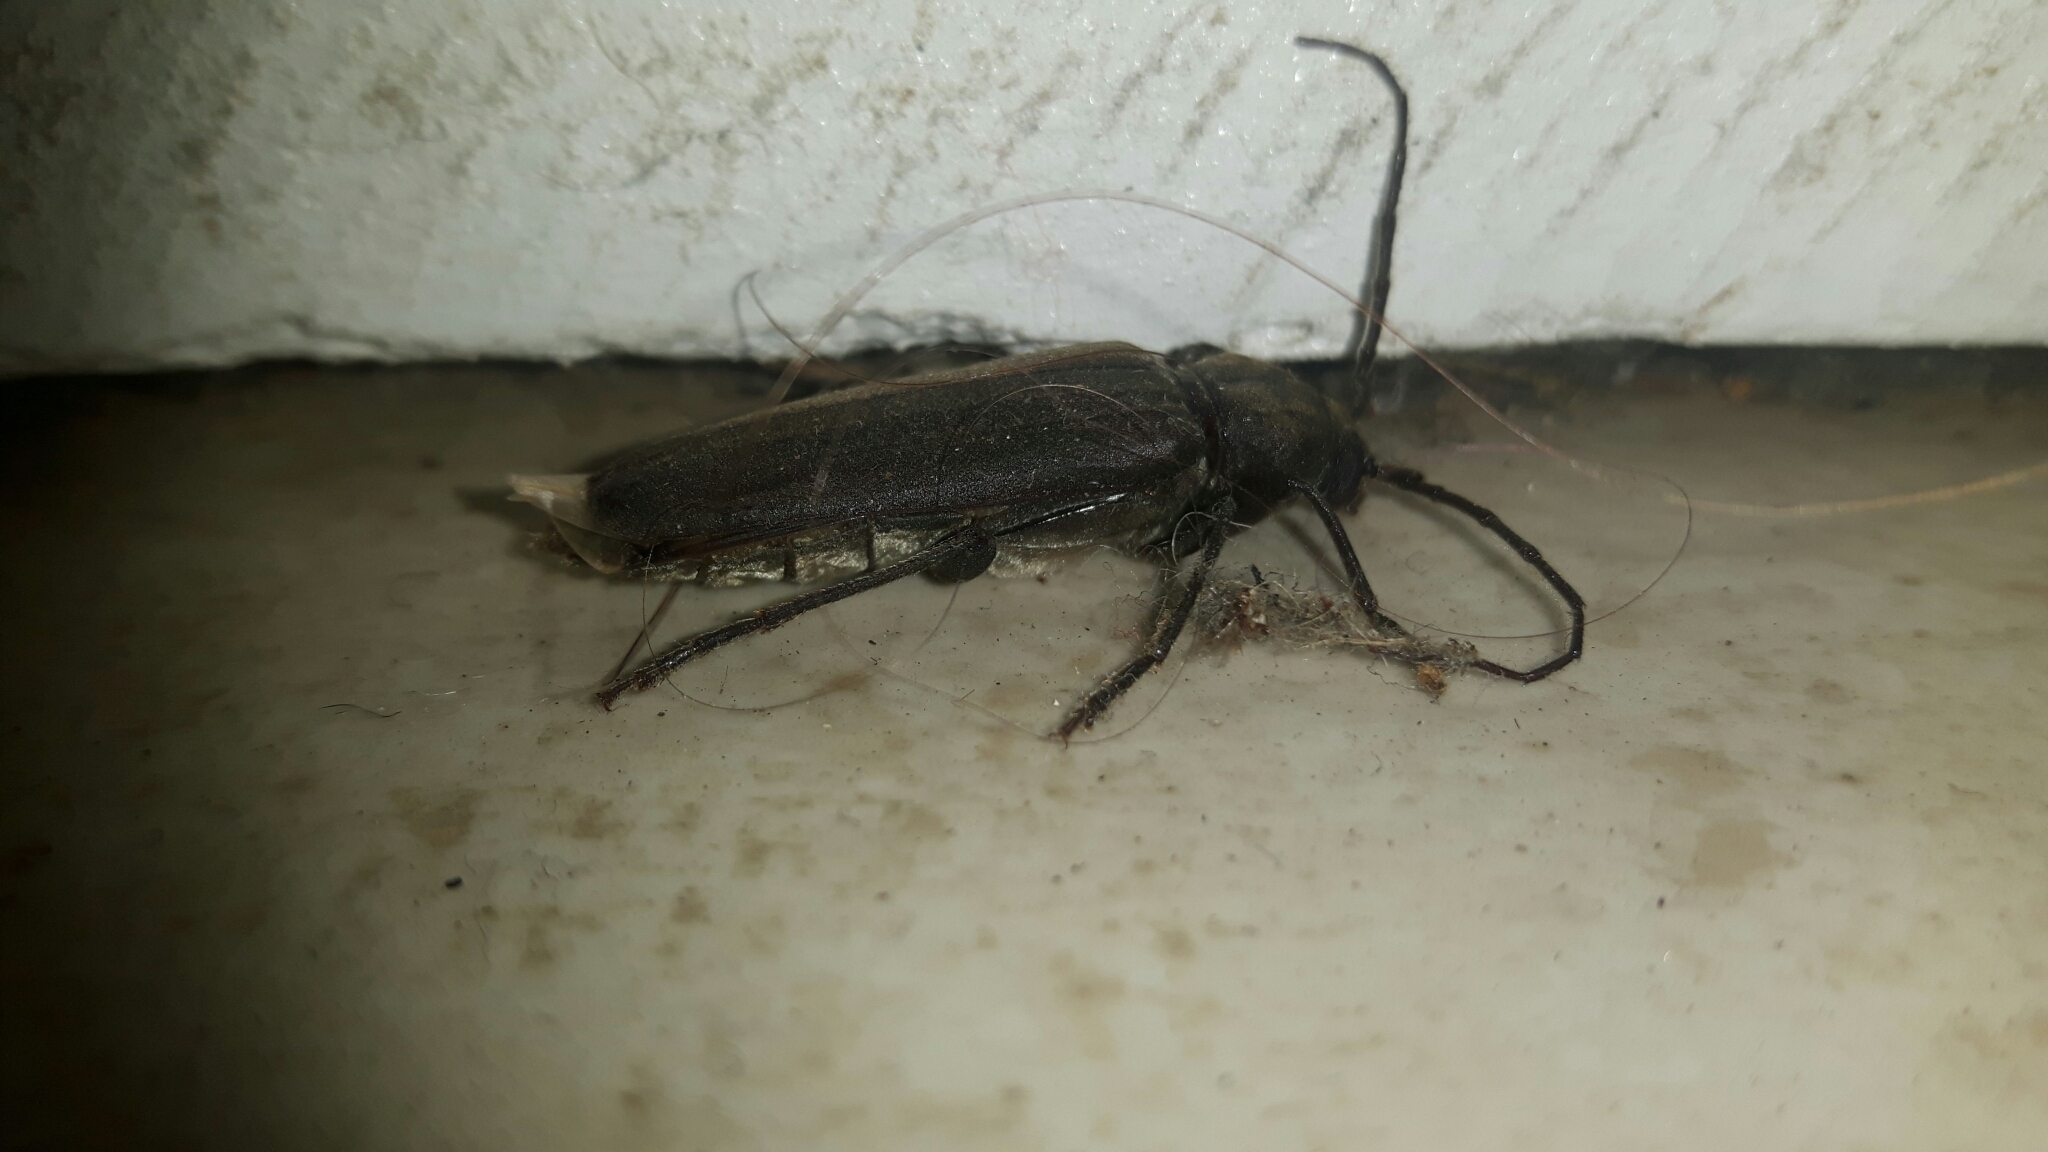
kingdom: Animalia
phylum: Arthropoda
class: Insecta
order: Coleoptera
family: Cerambycidae
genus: Arhopalus
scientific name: Arhopalus ferus
